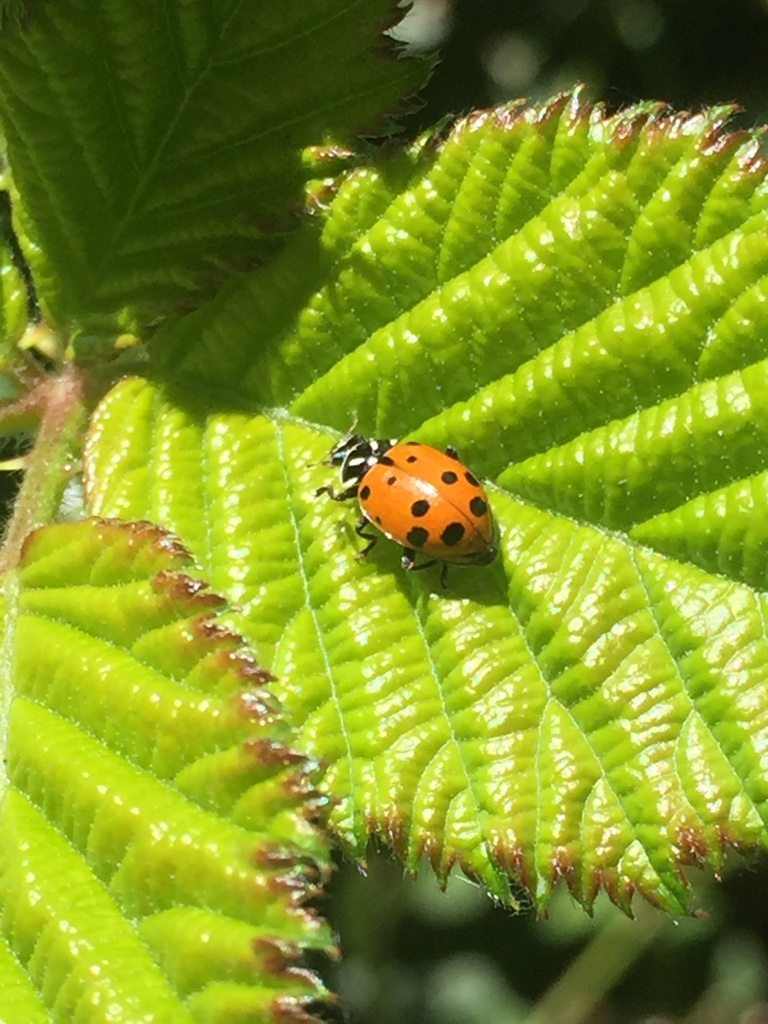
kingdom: Animalia
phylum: Arthropoda
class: Insecta
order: Coleoptera
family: Coccinellidae
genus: Hippodamia
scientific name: Hippodamia convergens
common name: Convergent lady beetle
